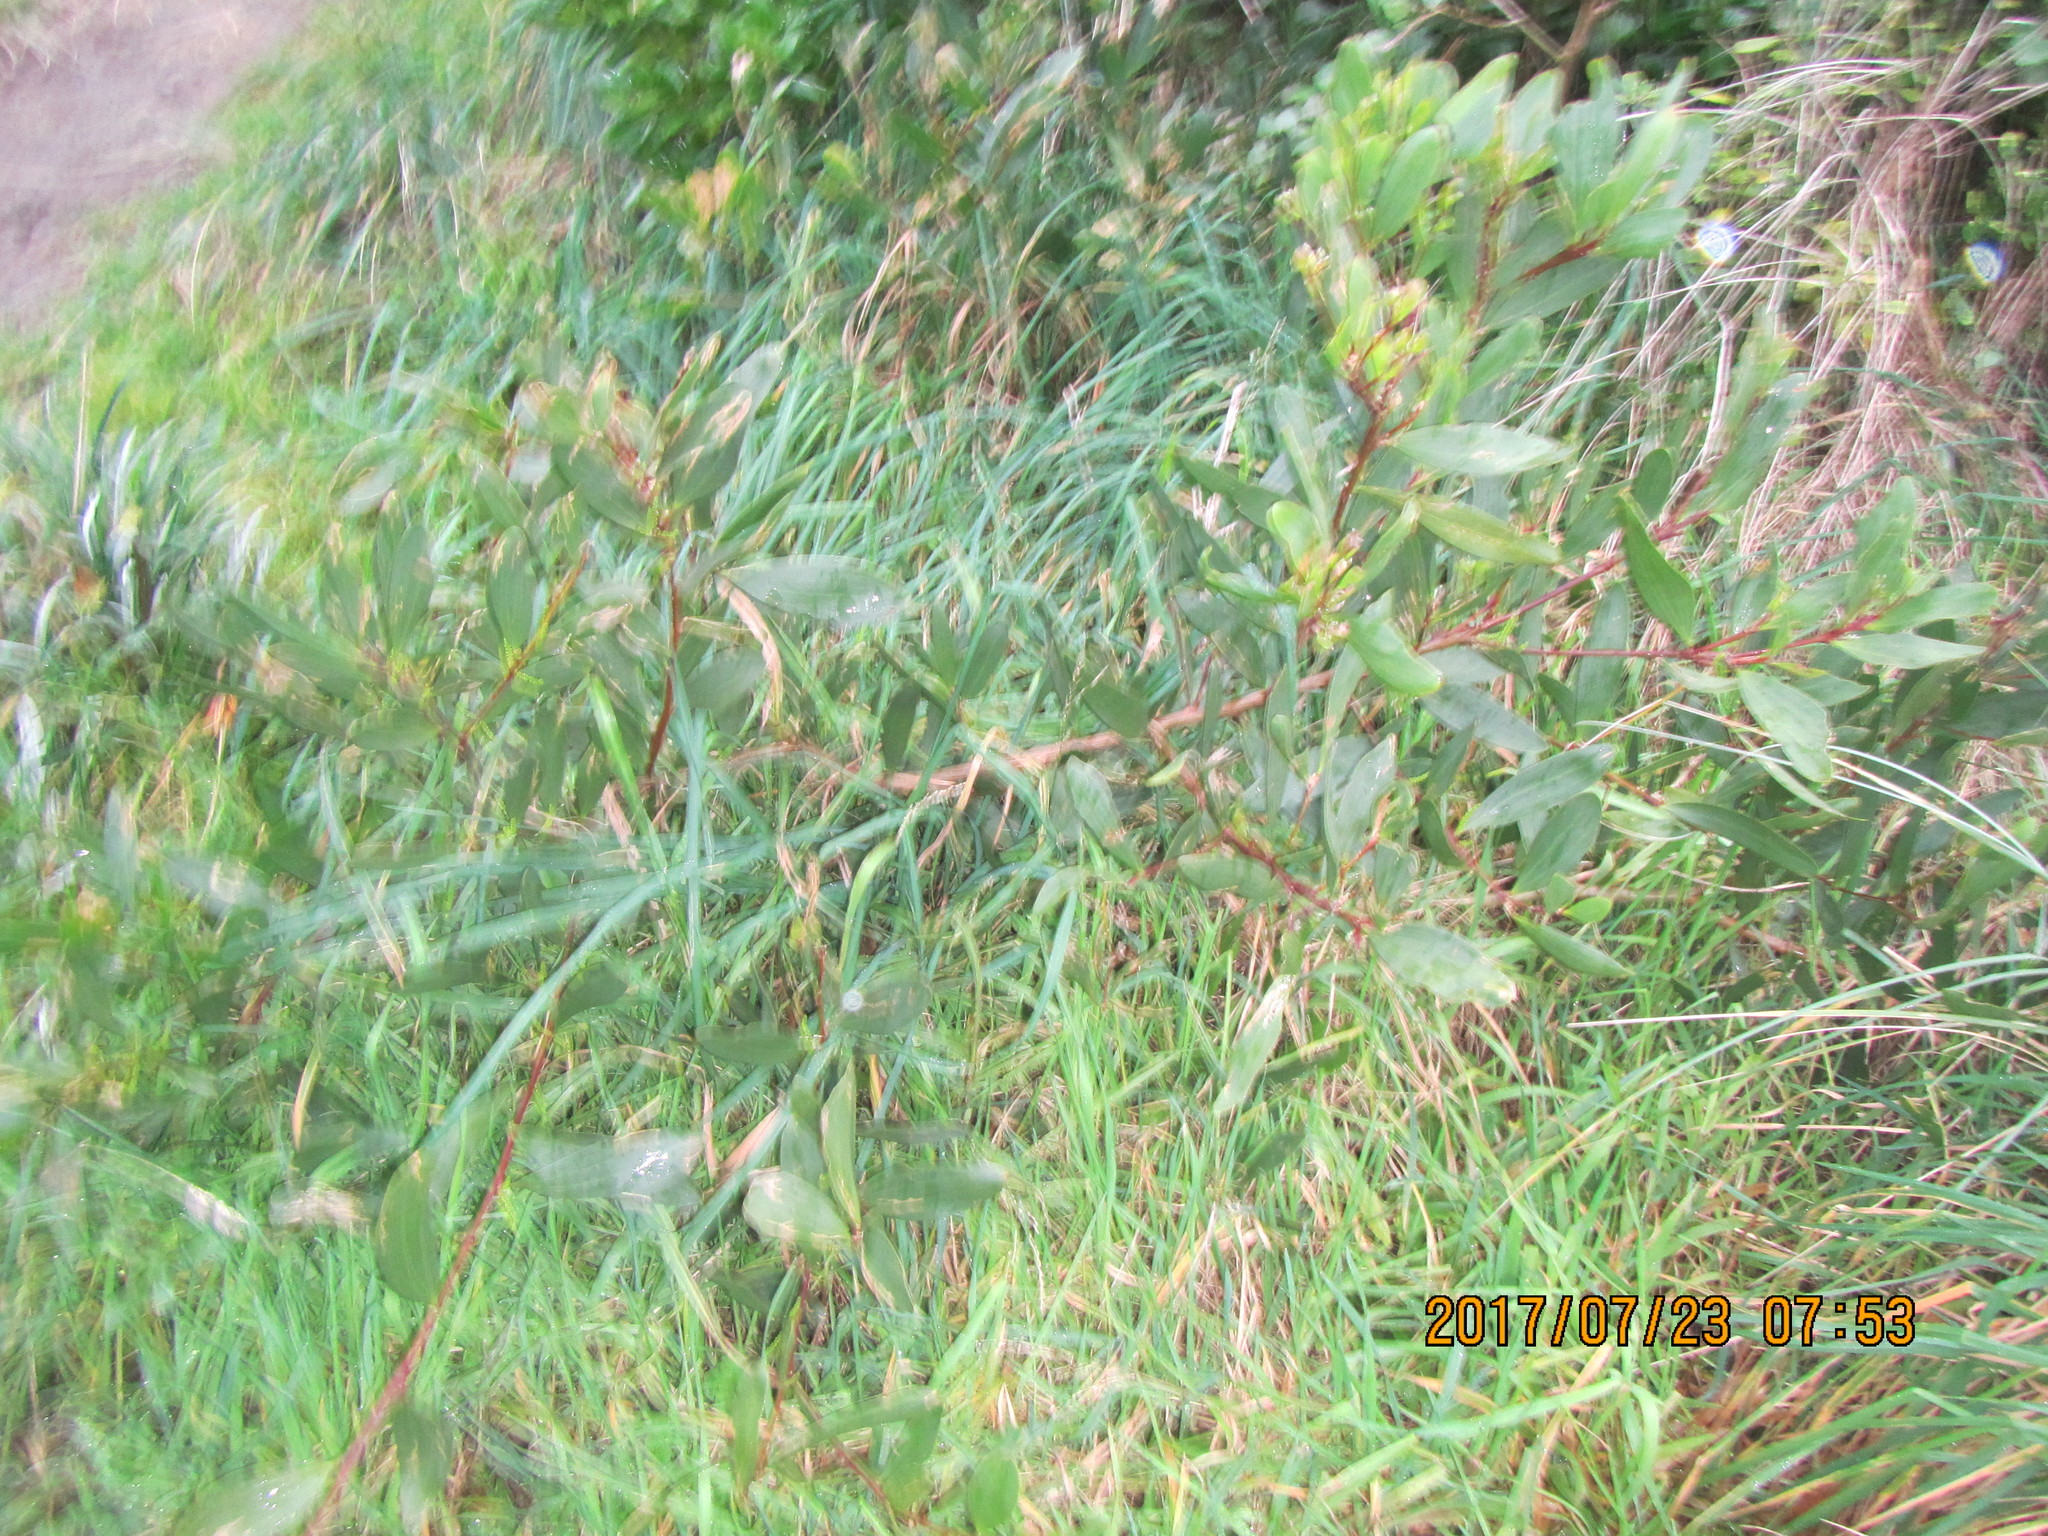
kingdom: Plantae
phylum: Tracheophyta
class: Magnoliopsida
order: Fabales
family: Fabaceae
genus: Acacia
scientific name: Acacia longifolia
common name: Sydney golden wattle
